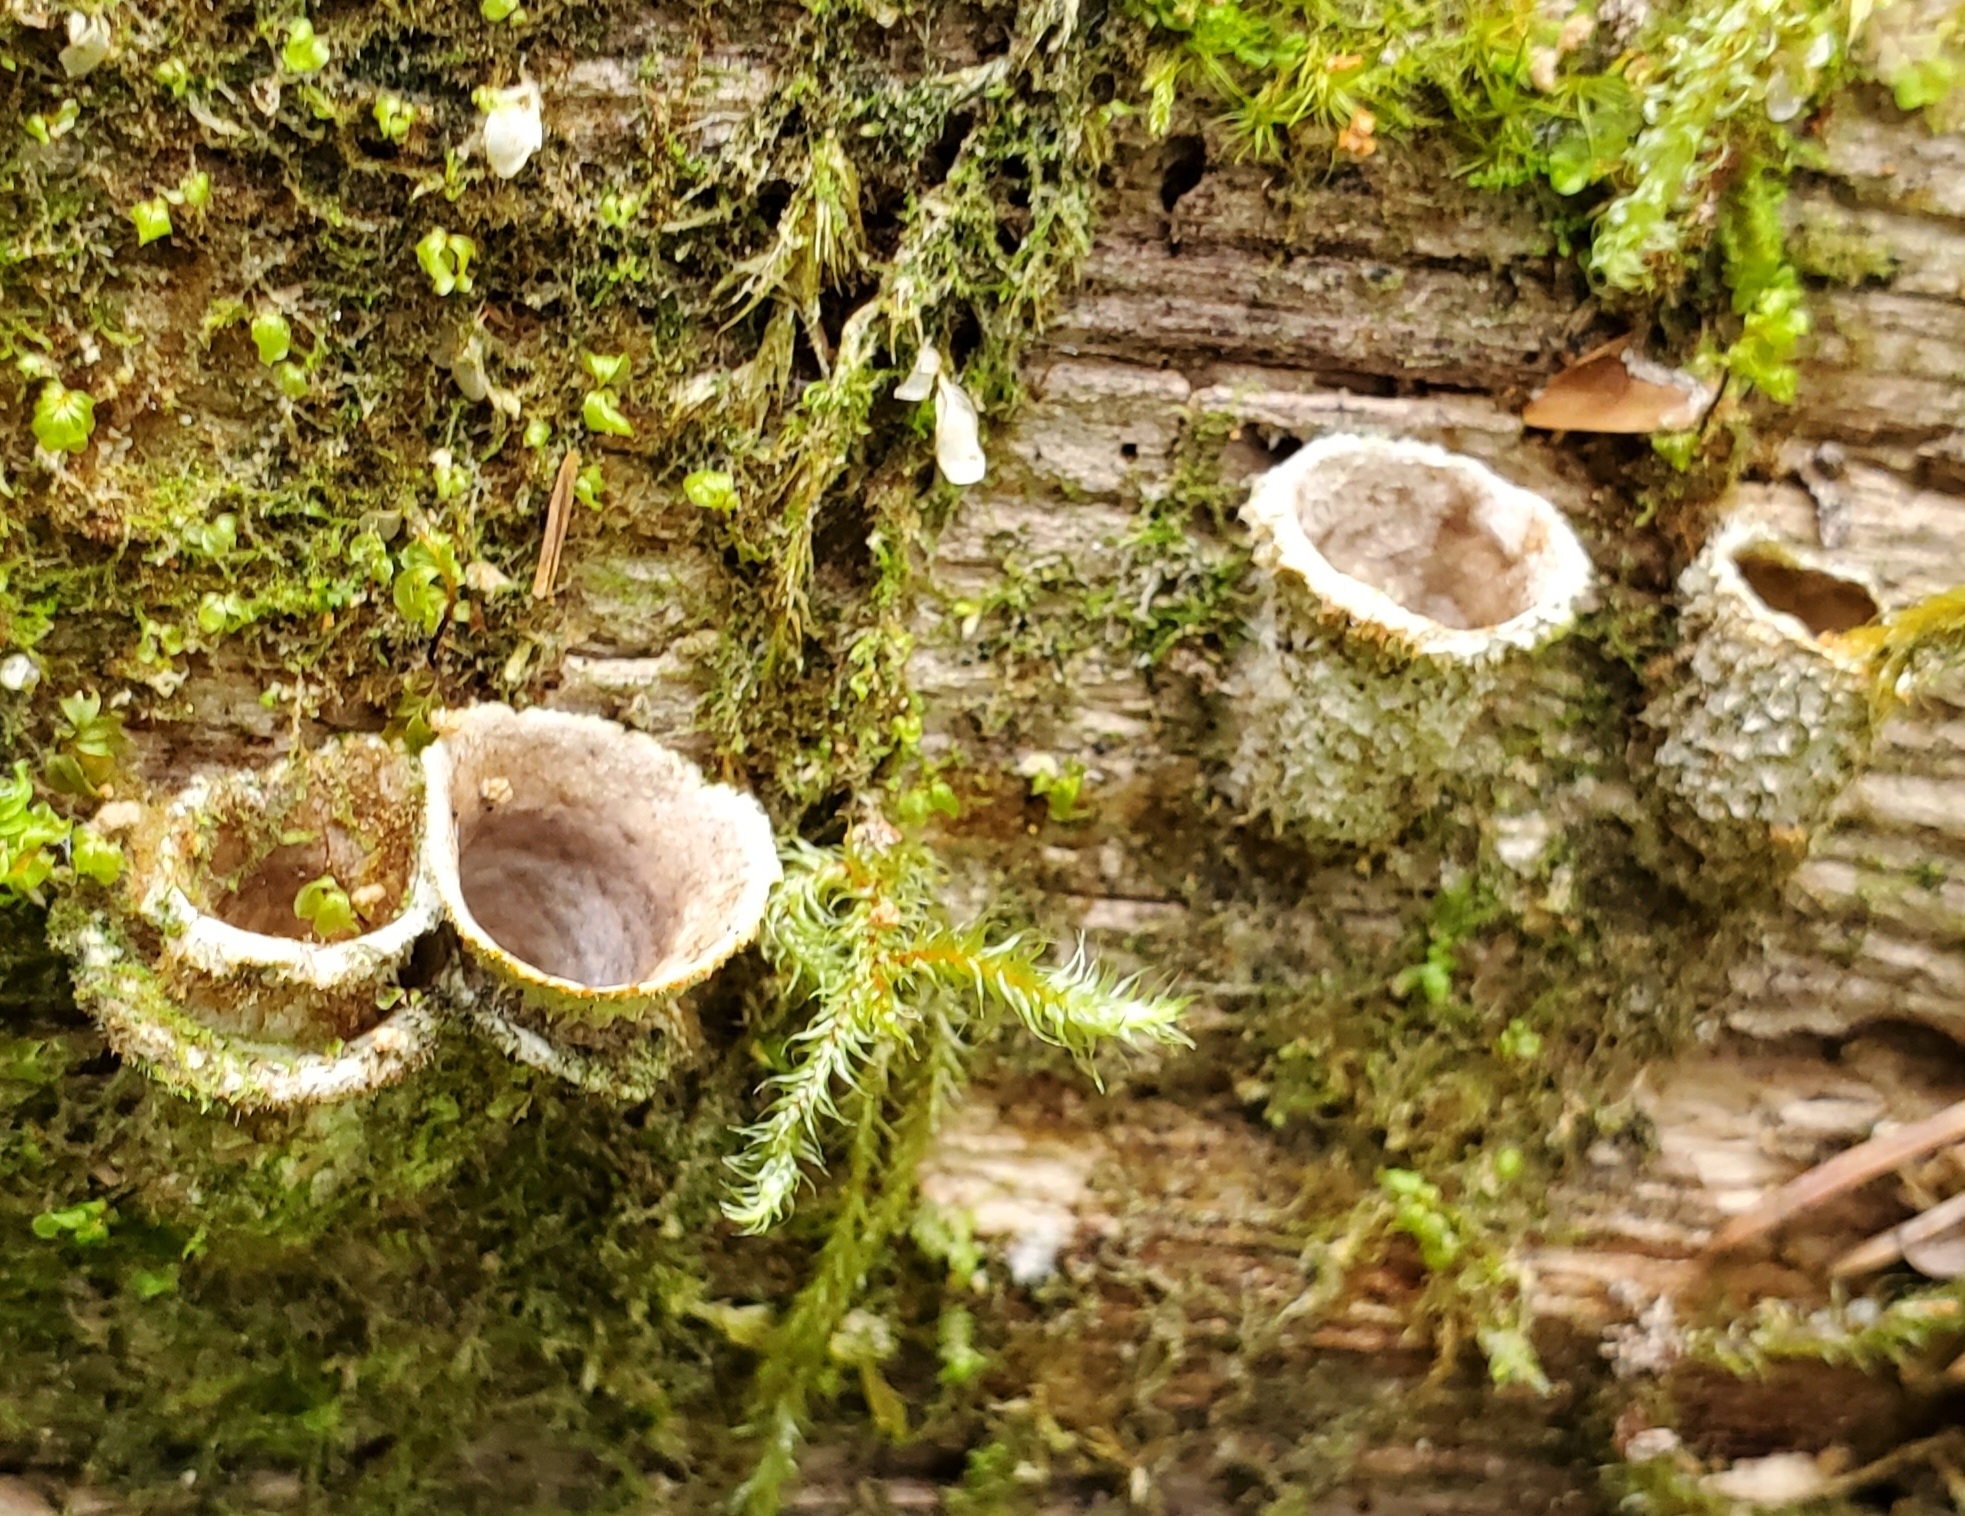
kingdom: Fungi
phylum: Basidiomycota
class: Agaricomycetes
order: Agaricales
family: Agaricaceae
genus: Nidula
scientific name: Nidula candida
